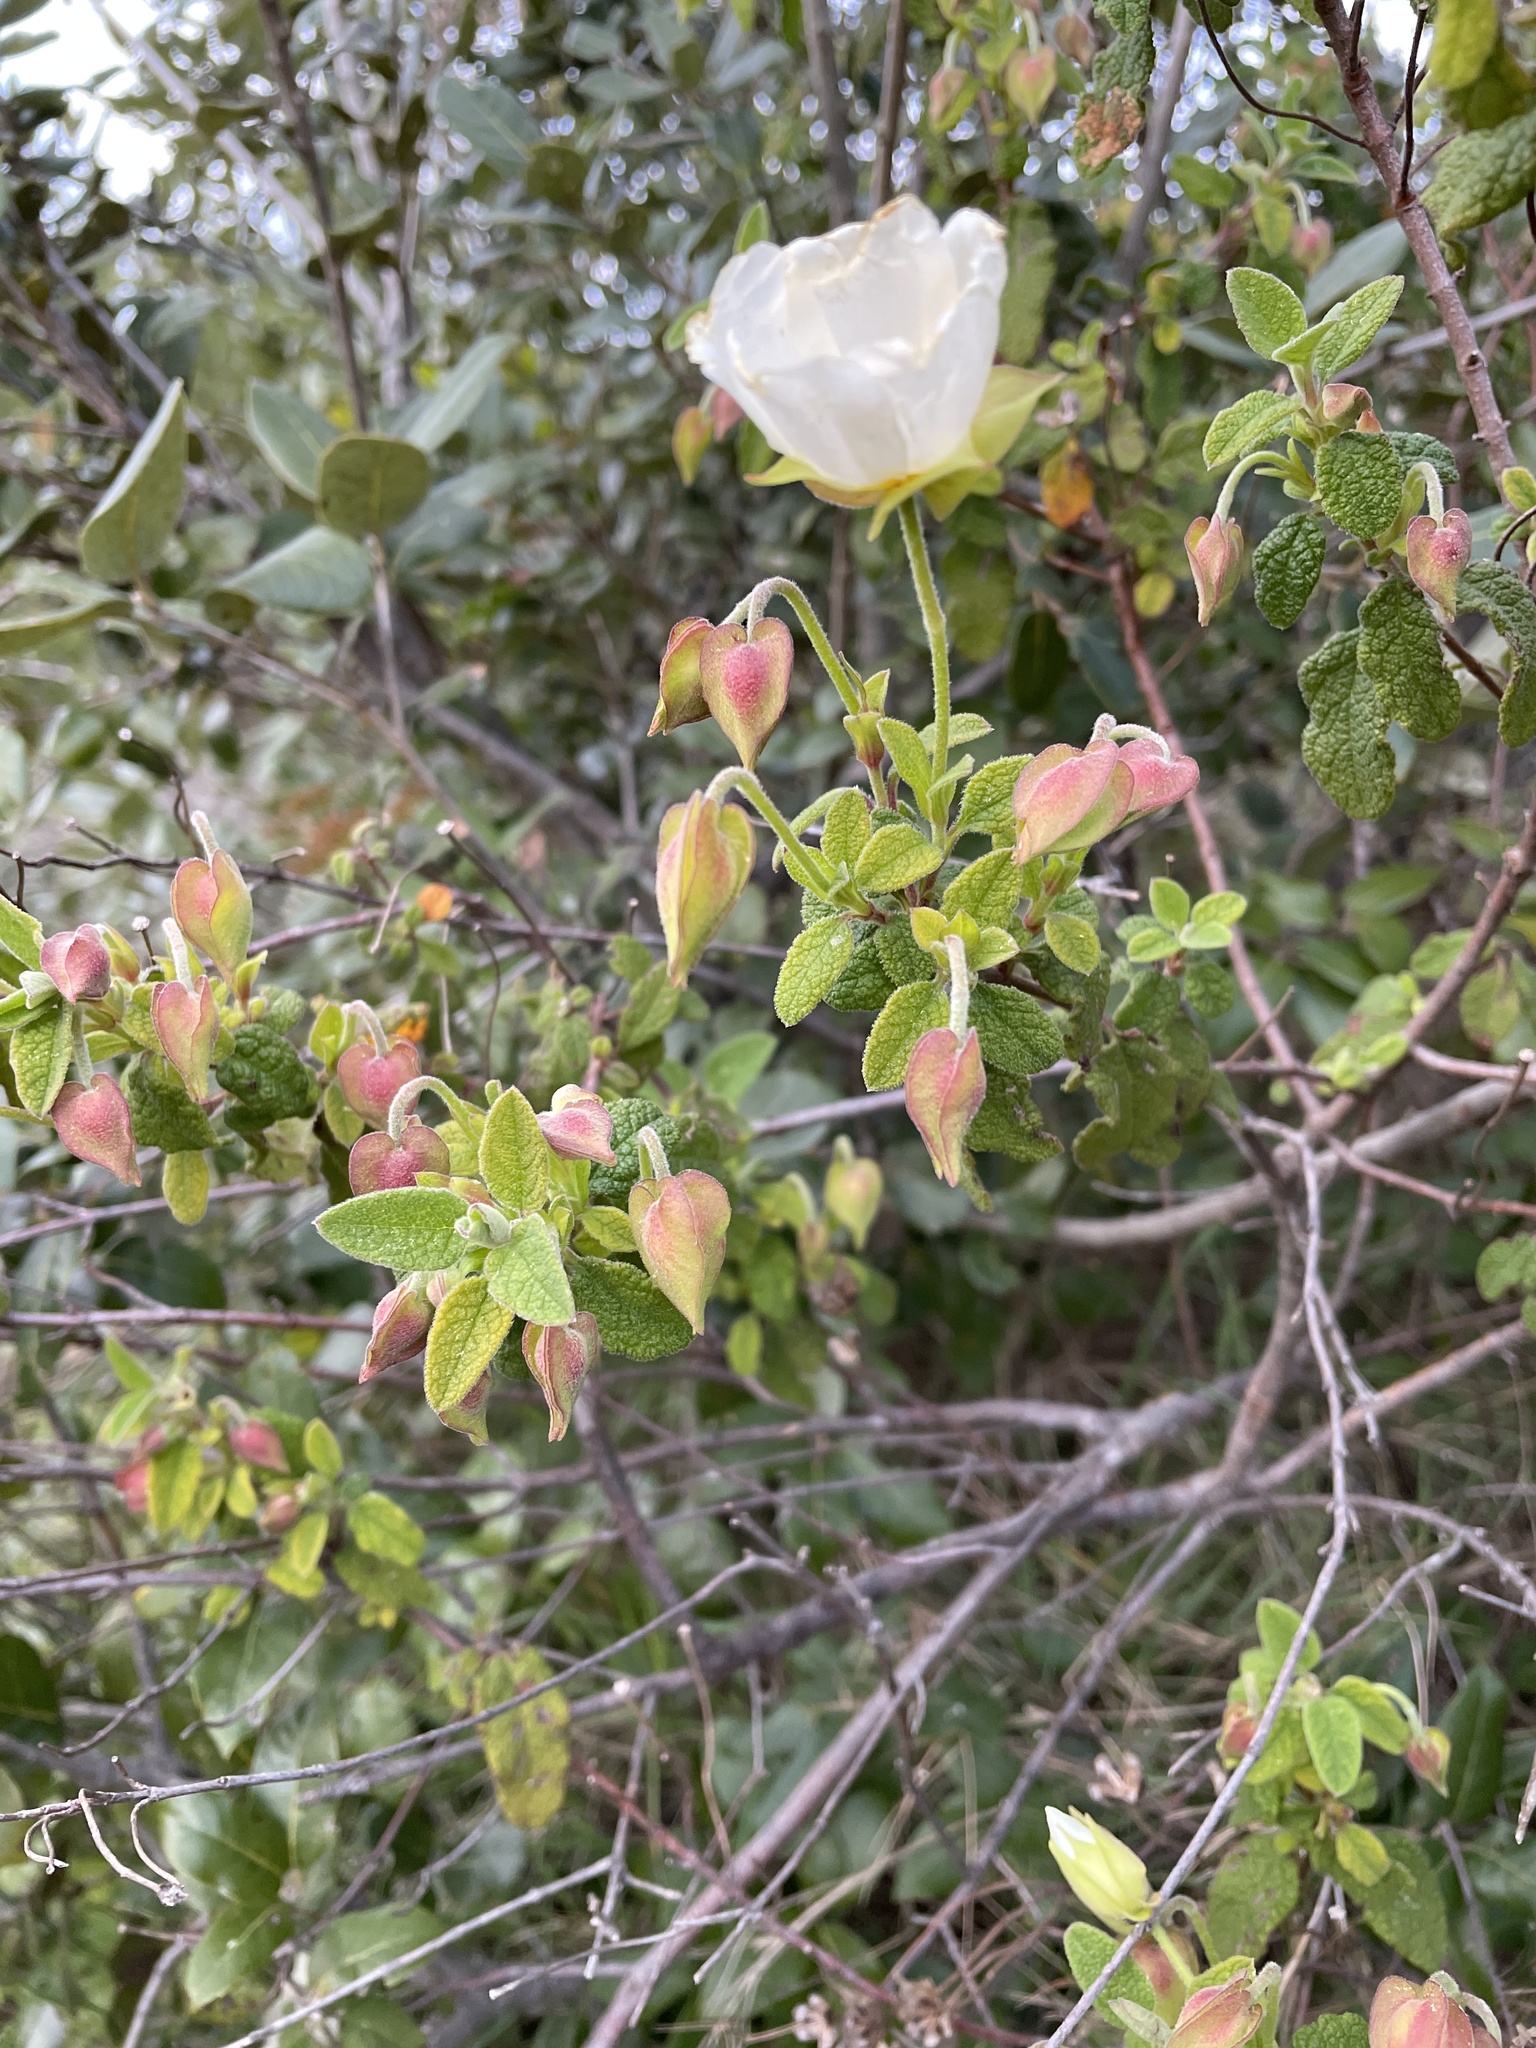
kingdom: Plantae
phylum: Tracheophyta
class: Magnoliopsida
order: Malvales
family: Cistaceae
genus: Cistus
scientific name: Cistus salviifolius
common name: Salvia cistus
